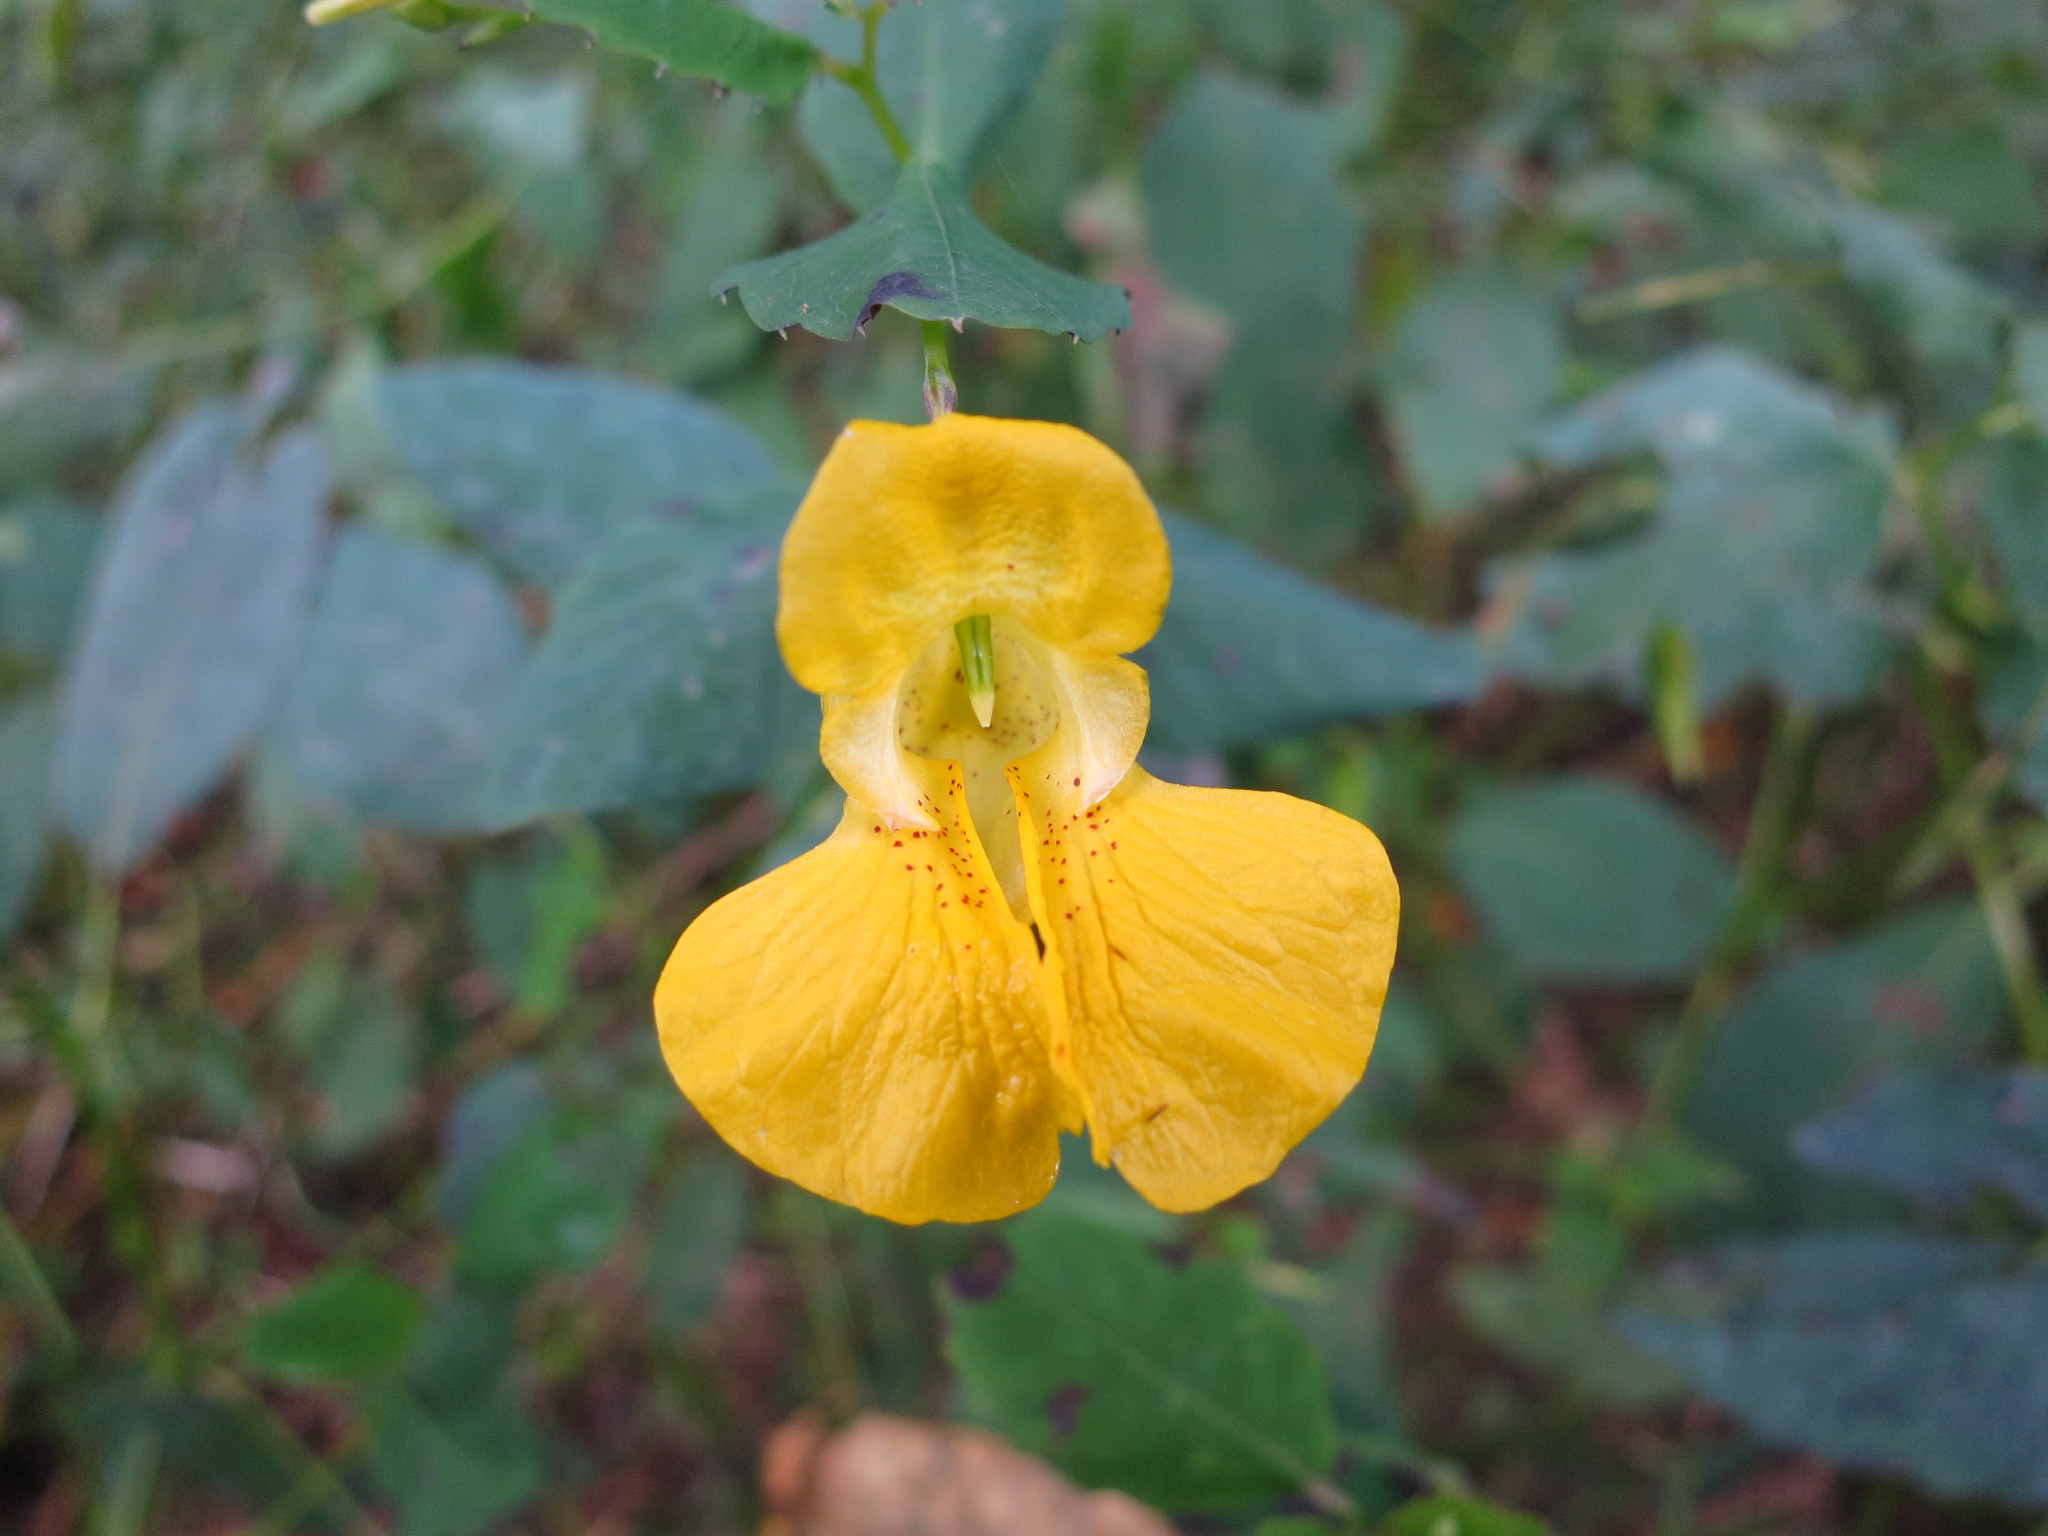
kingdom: Plantae
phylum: Tracheophyta
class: Magnoliopsida
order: Ericales
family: Balsaminaceae
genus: Impatiens
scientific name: Impatiens pallida
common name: Pale snapweed
